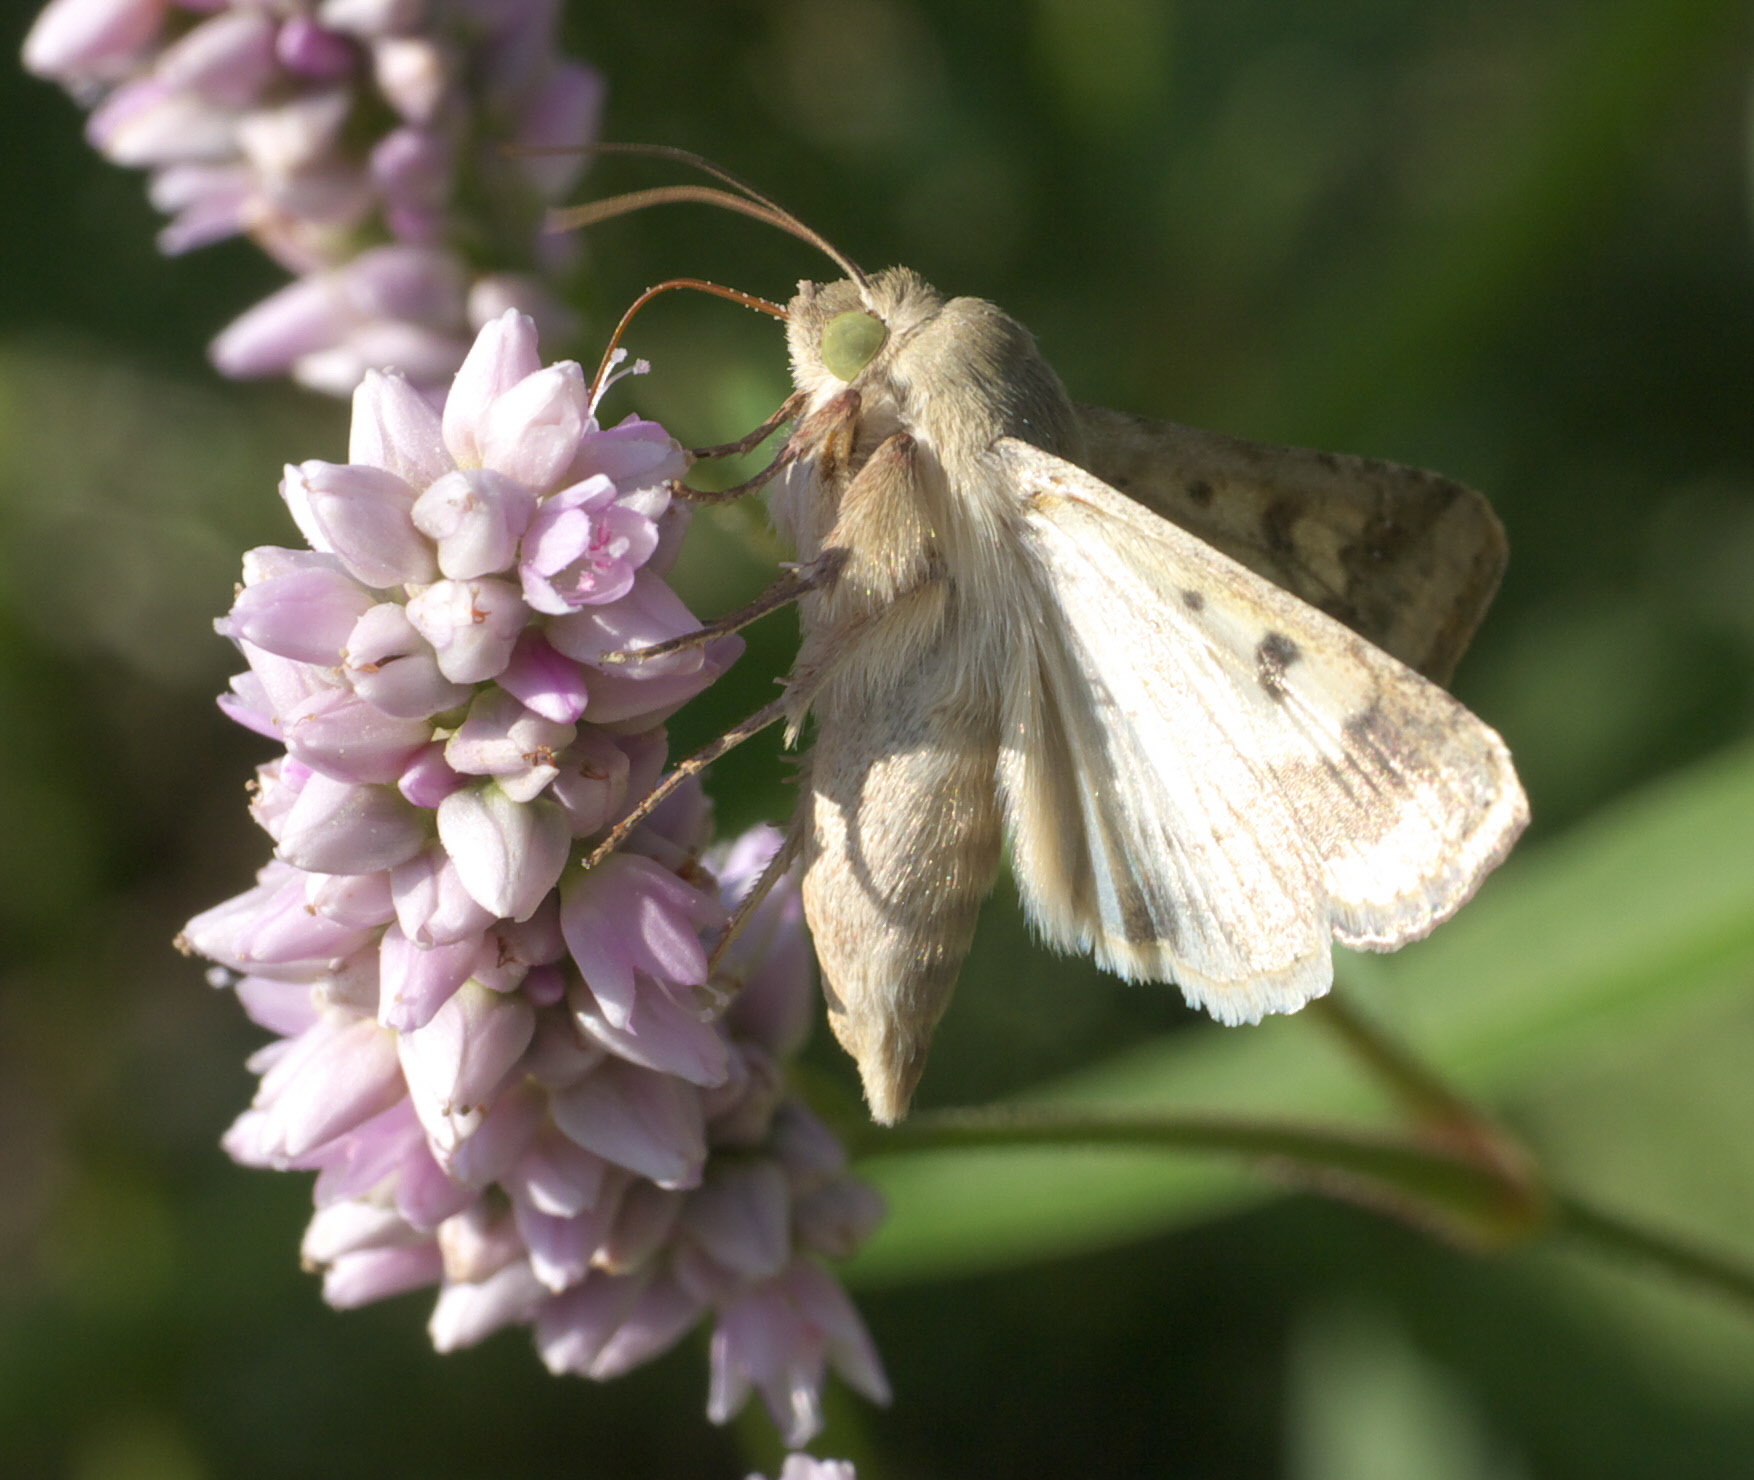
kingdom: Animalia
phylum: Arthropoda
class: Insecta
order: Lepidoptera
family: Noctuidae
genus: Helicoverpa
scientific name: Helicoverpa zea
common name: Bollworm
